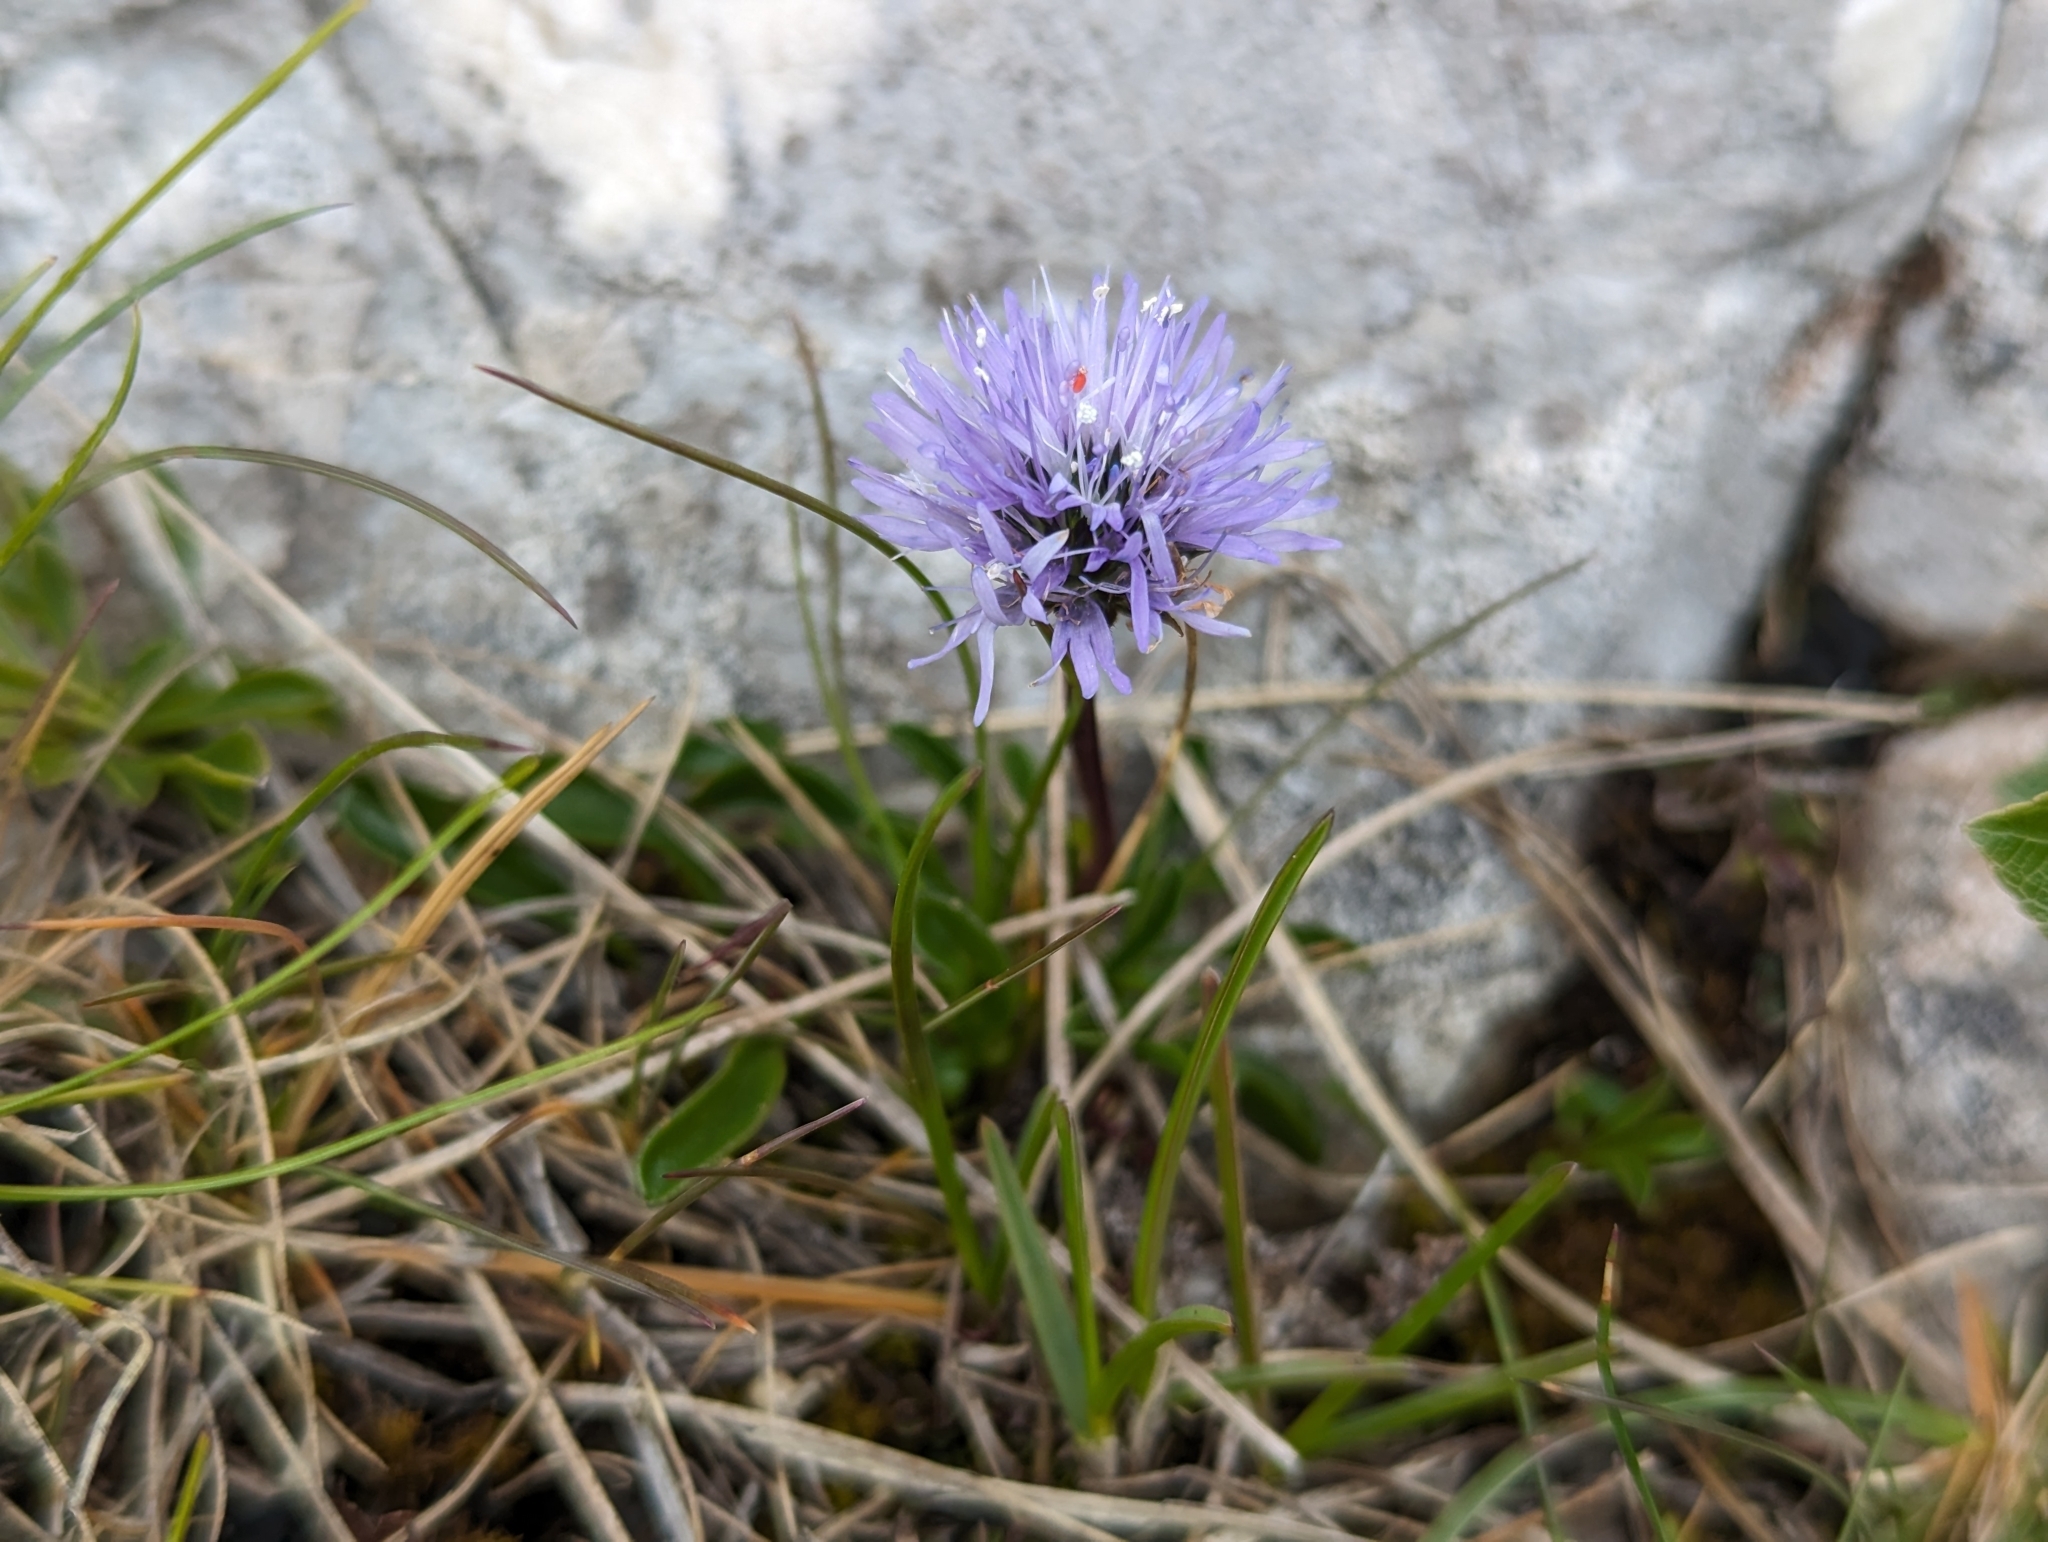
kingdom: Plantae
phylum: Tracheophyta
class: Magnoliopsida
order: Lamiales
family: Plantaginaceae
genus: Globularia
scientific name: Globularia cordifolia
